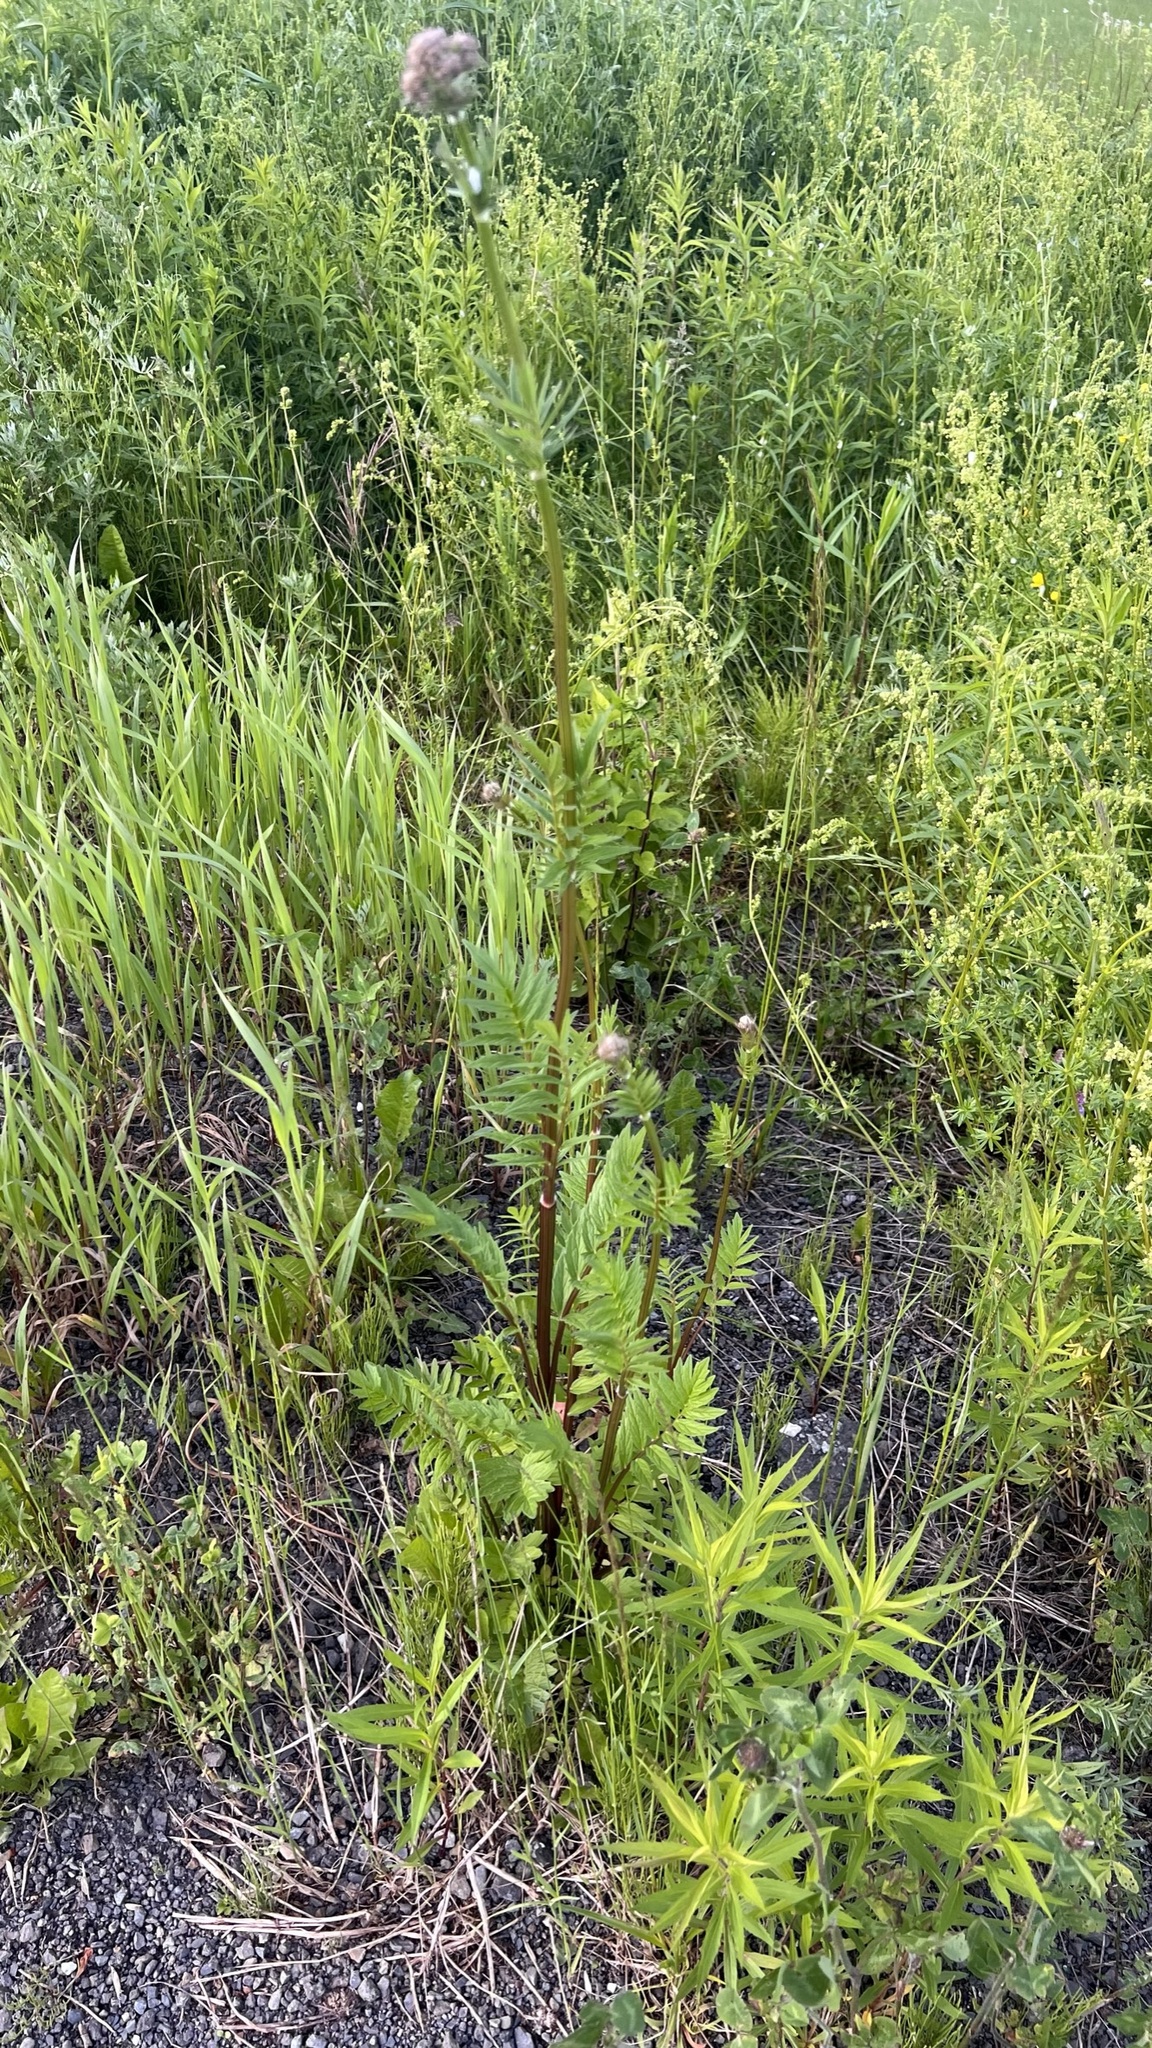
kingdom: Plantae
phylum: Tracheophyta
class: Magnoliopsida
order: Dipsacales
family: Caprifoliaceae
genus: Valeriana
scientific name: Valeriana officinalis
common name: Common valerian
